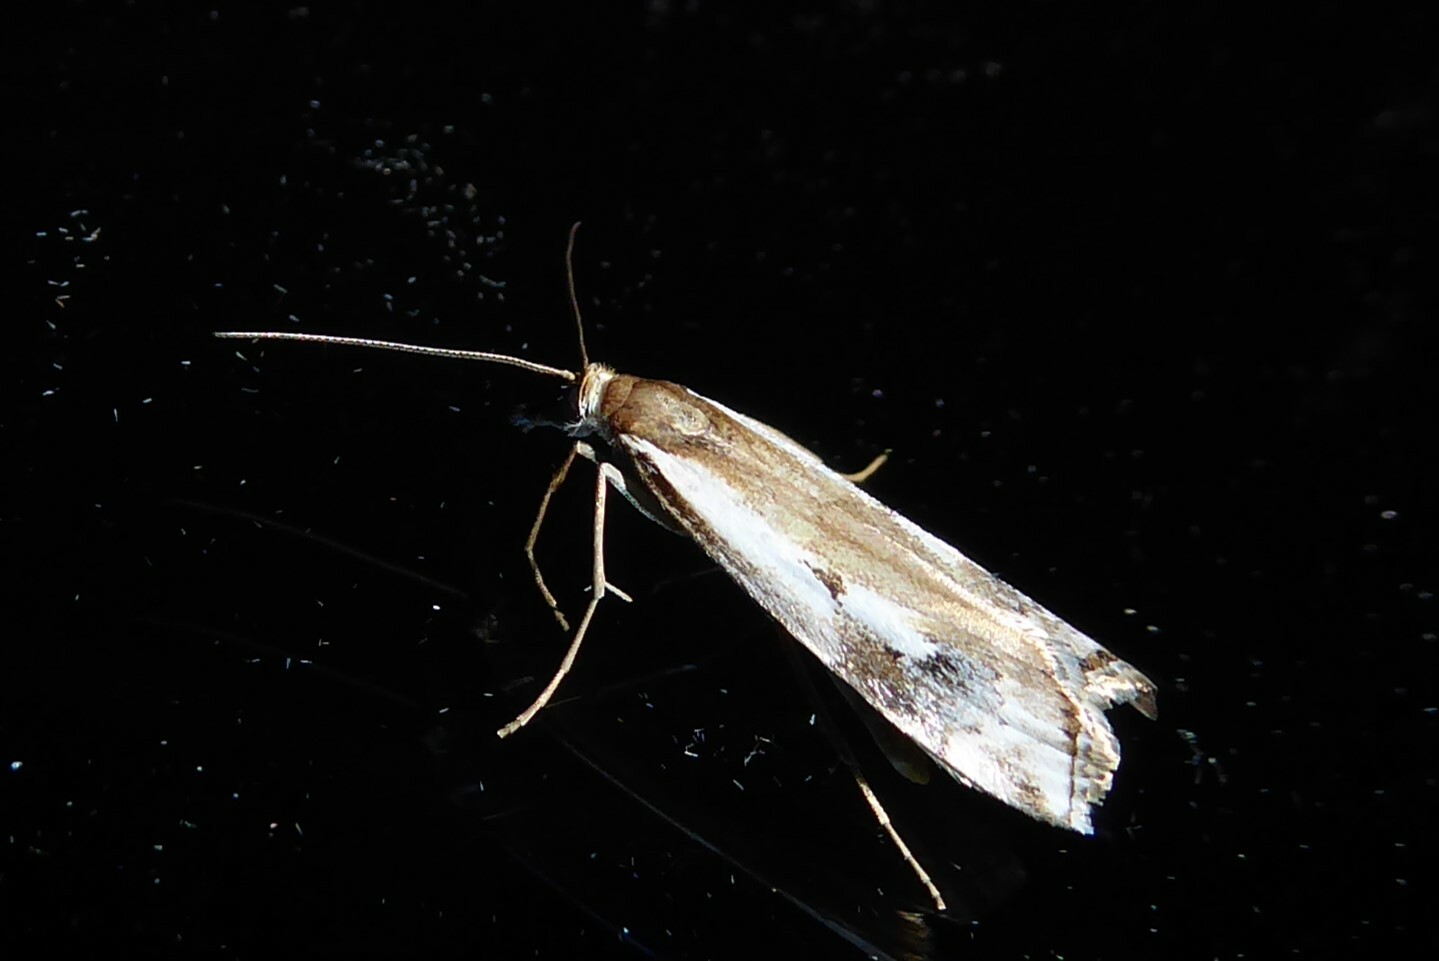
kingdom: Animalia
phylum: Arthropoda
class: Insecta
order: Lepidoptera
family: Crambidae
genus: Orocrambus
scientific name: Orocrambus vulgaris
